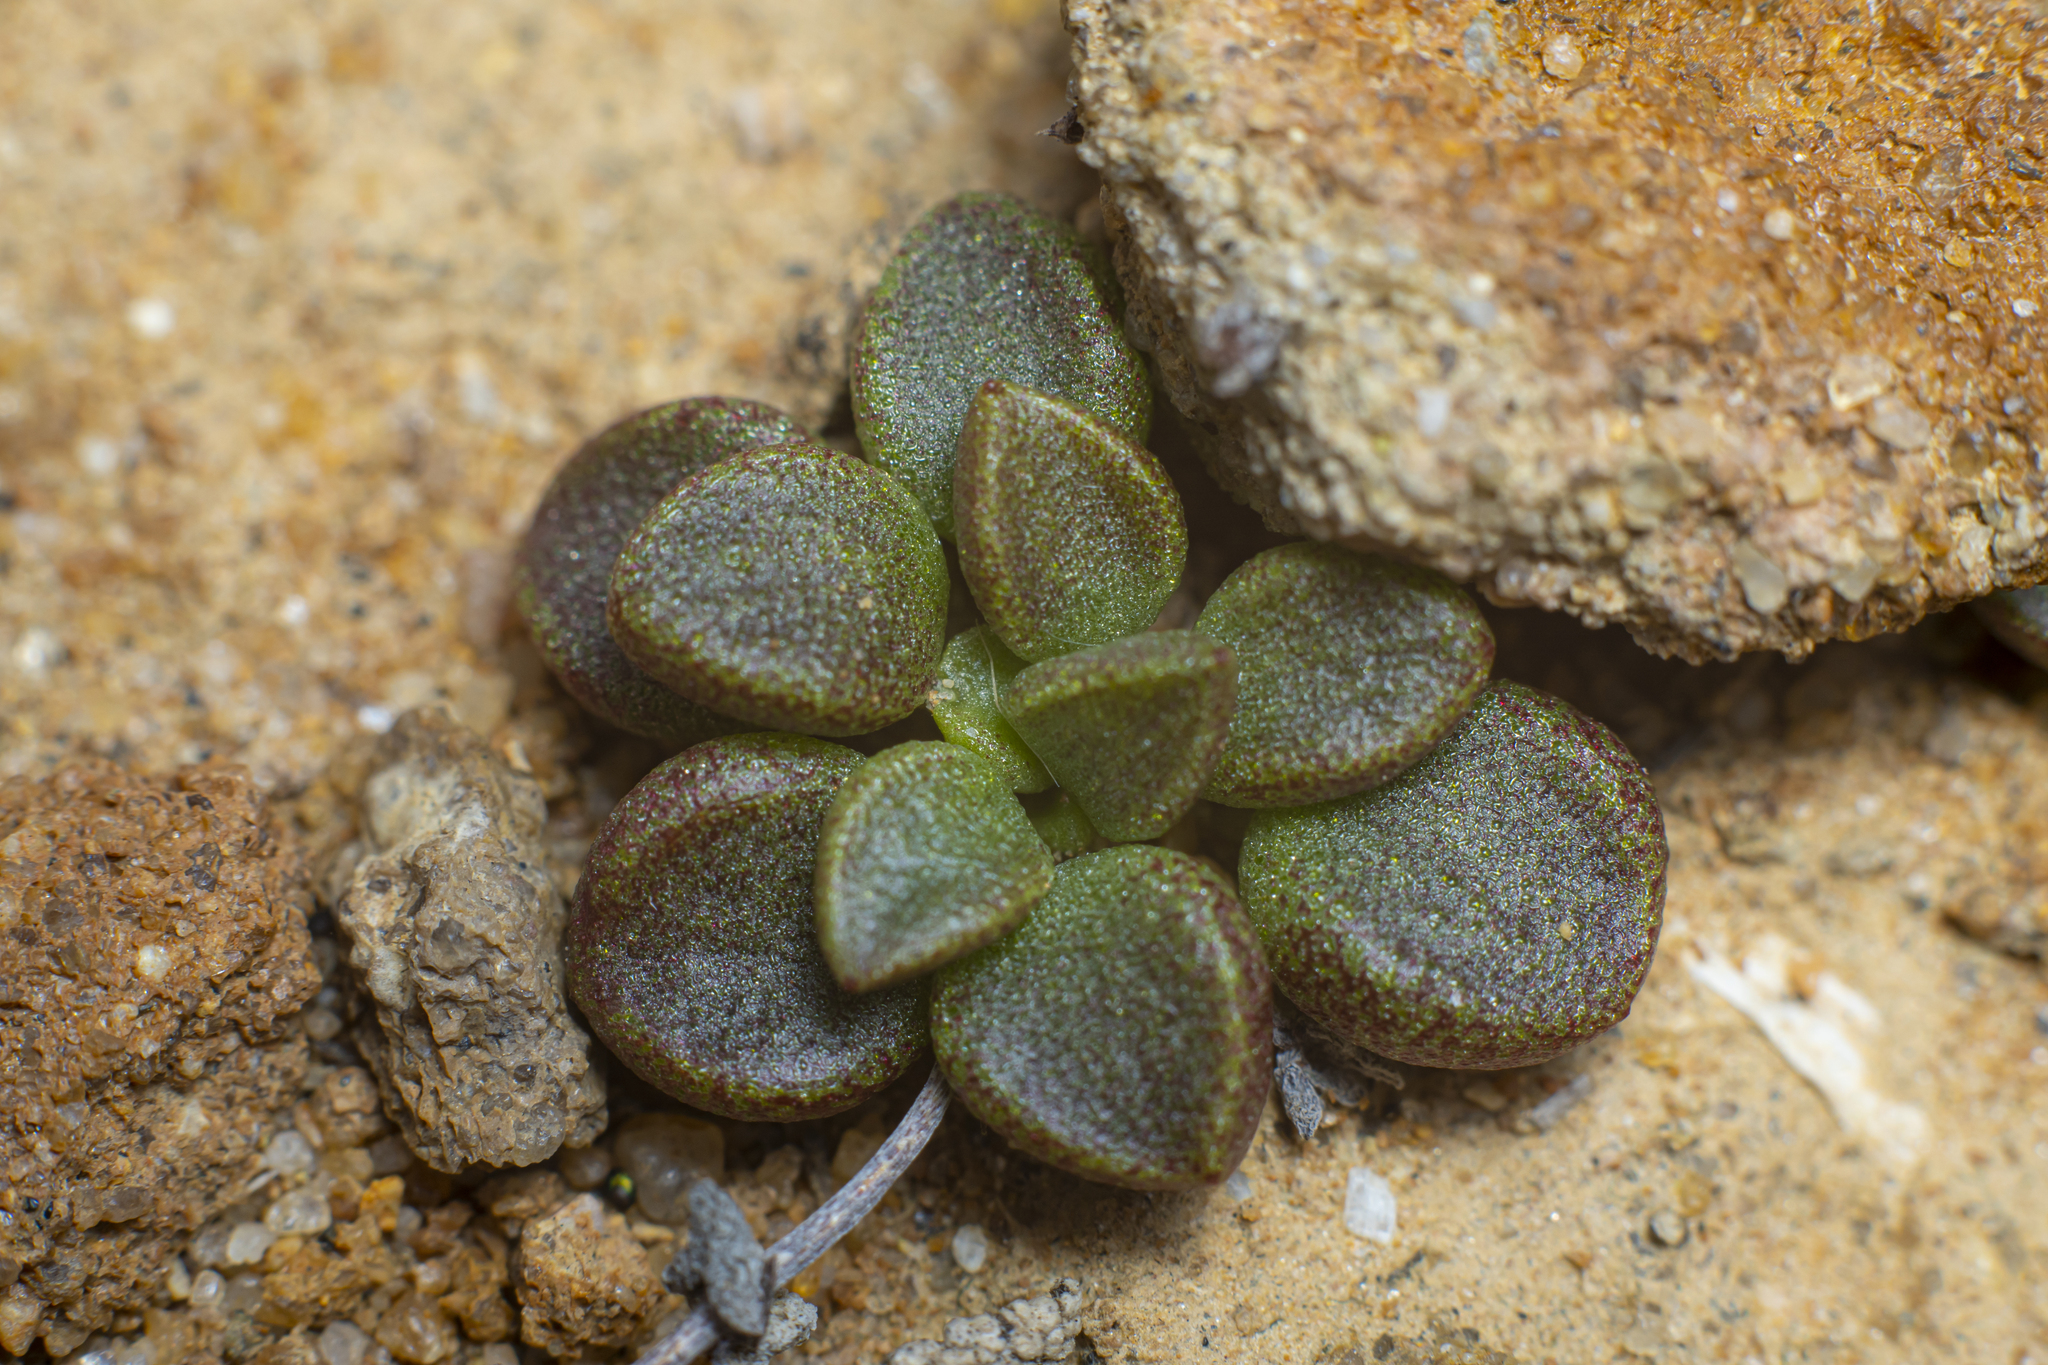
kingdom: Plantae
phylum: Tracheophyta
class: Magnoliopsida
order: Saxifragales
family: Crassulaceae
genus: Dudleya
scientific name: Dudleya blochmaniae
